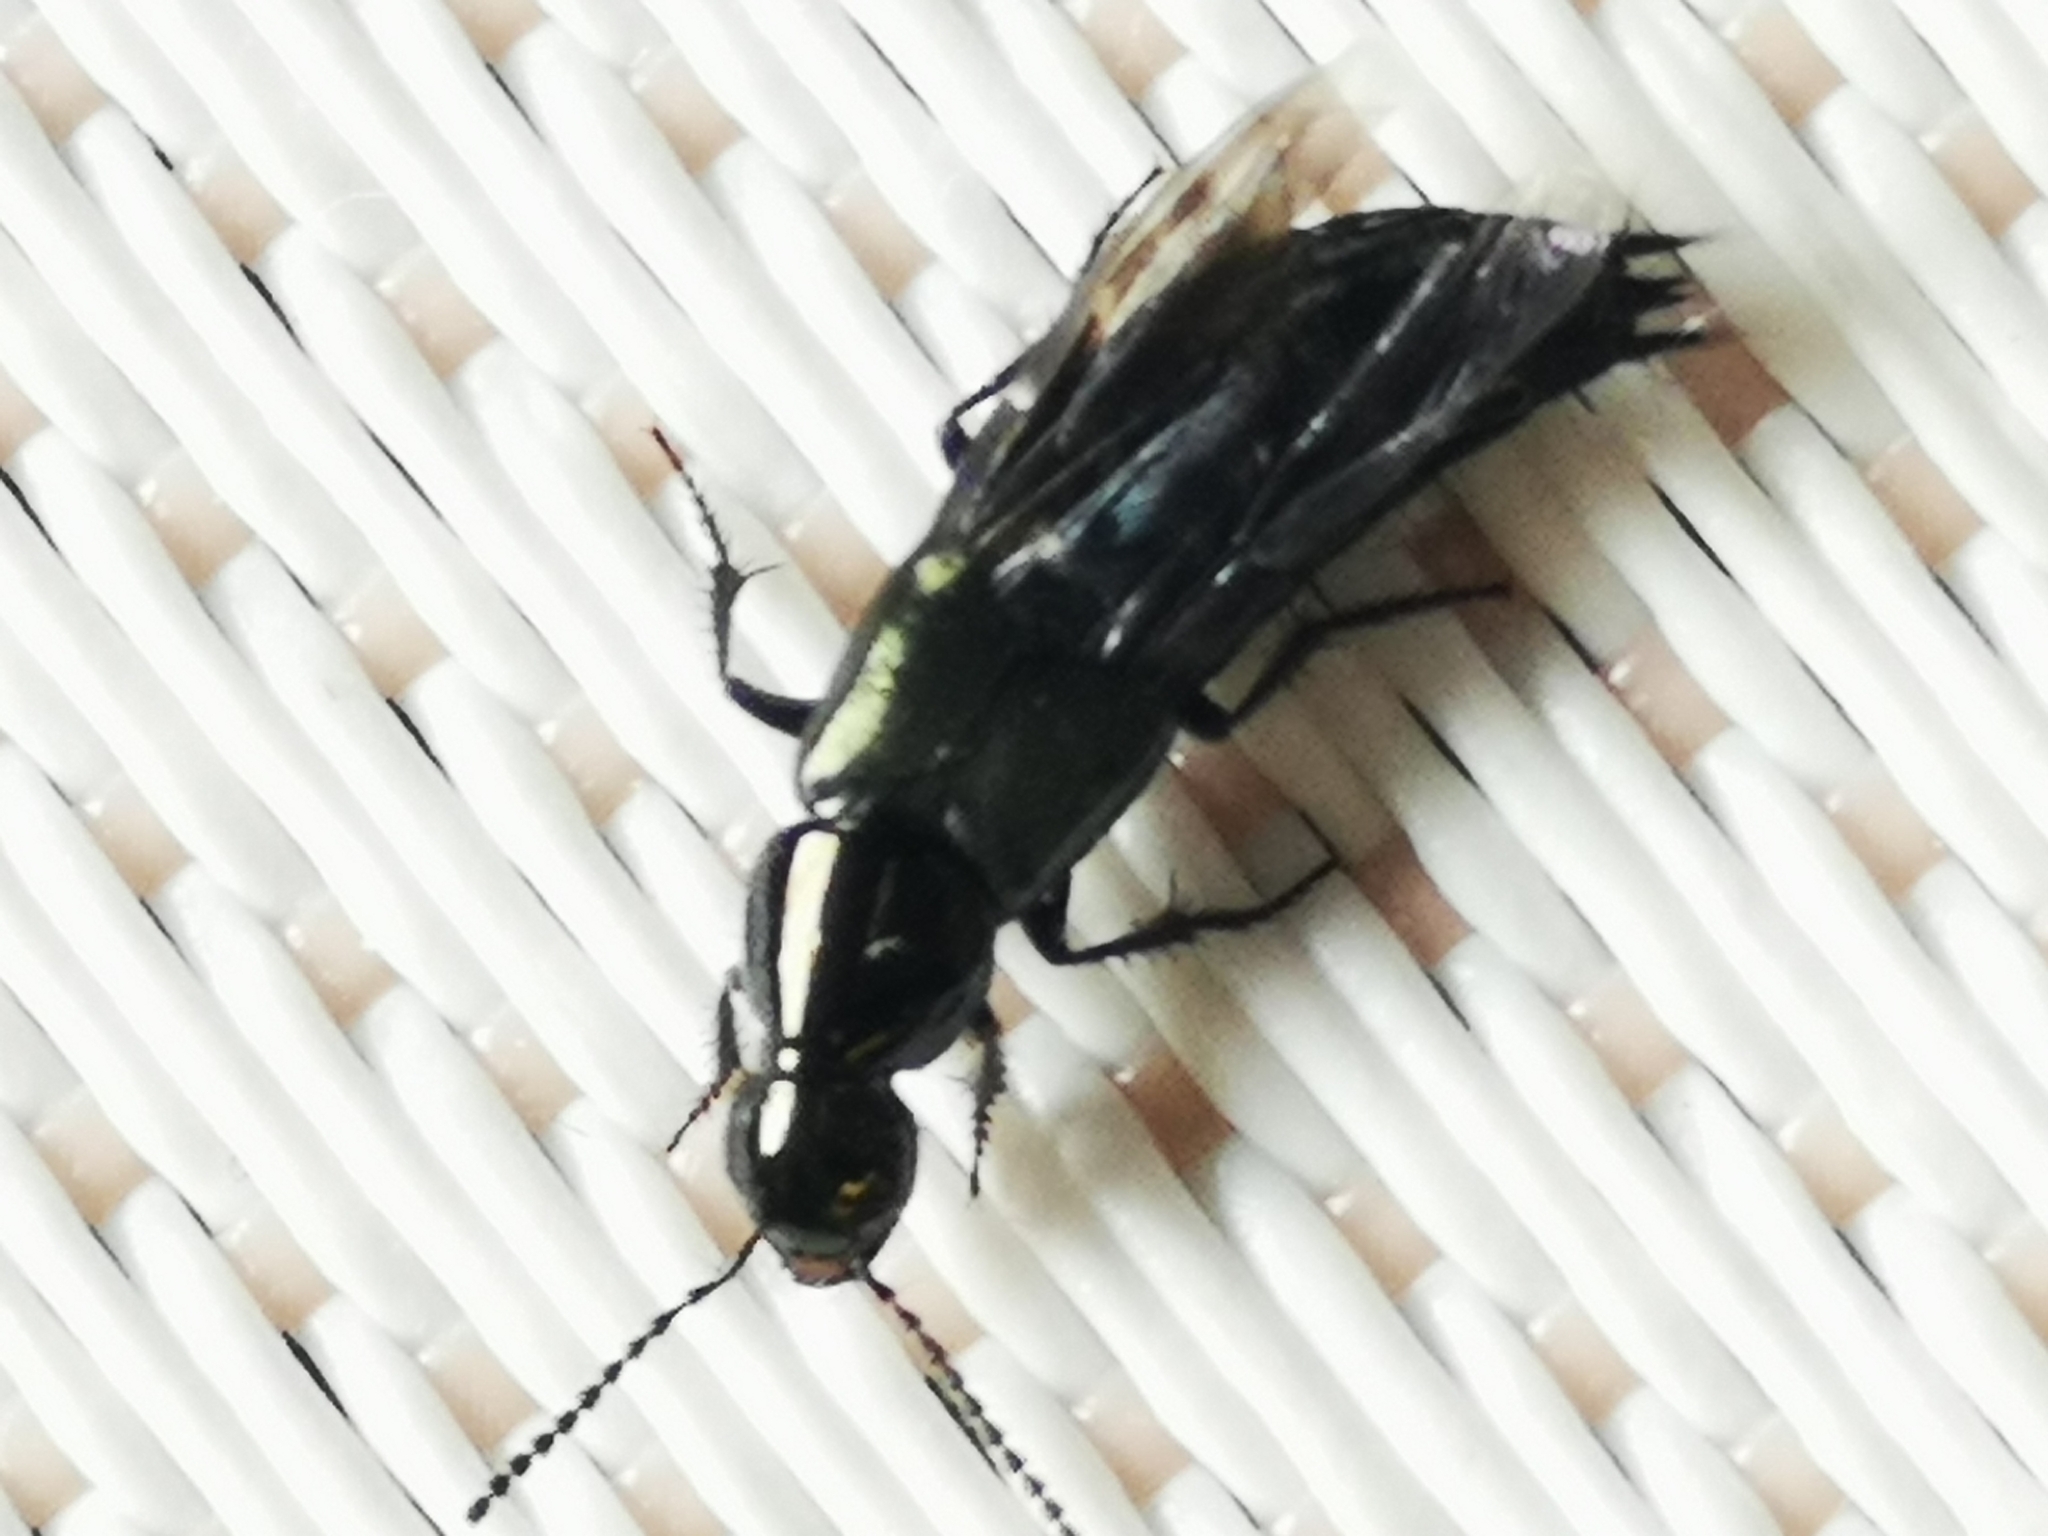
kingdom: Animalia
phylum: Arthropoda
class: Insecta
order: Coleoptera
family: Staphylinidae
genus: Philonthus
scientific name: Philonthus laminatus
